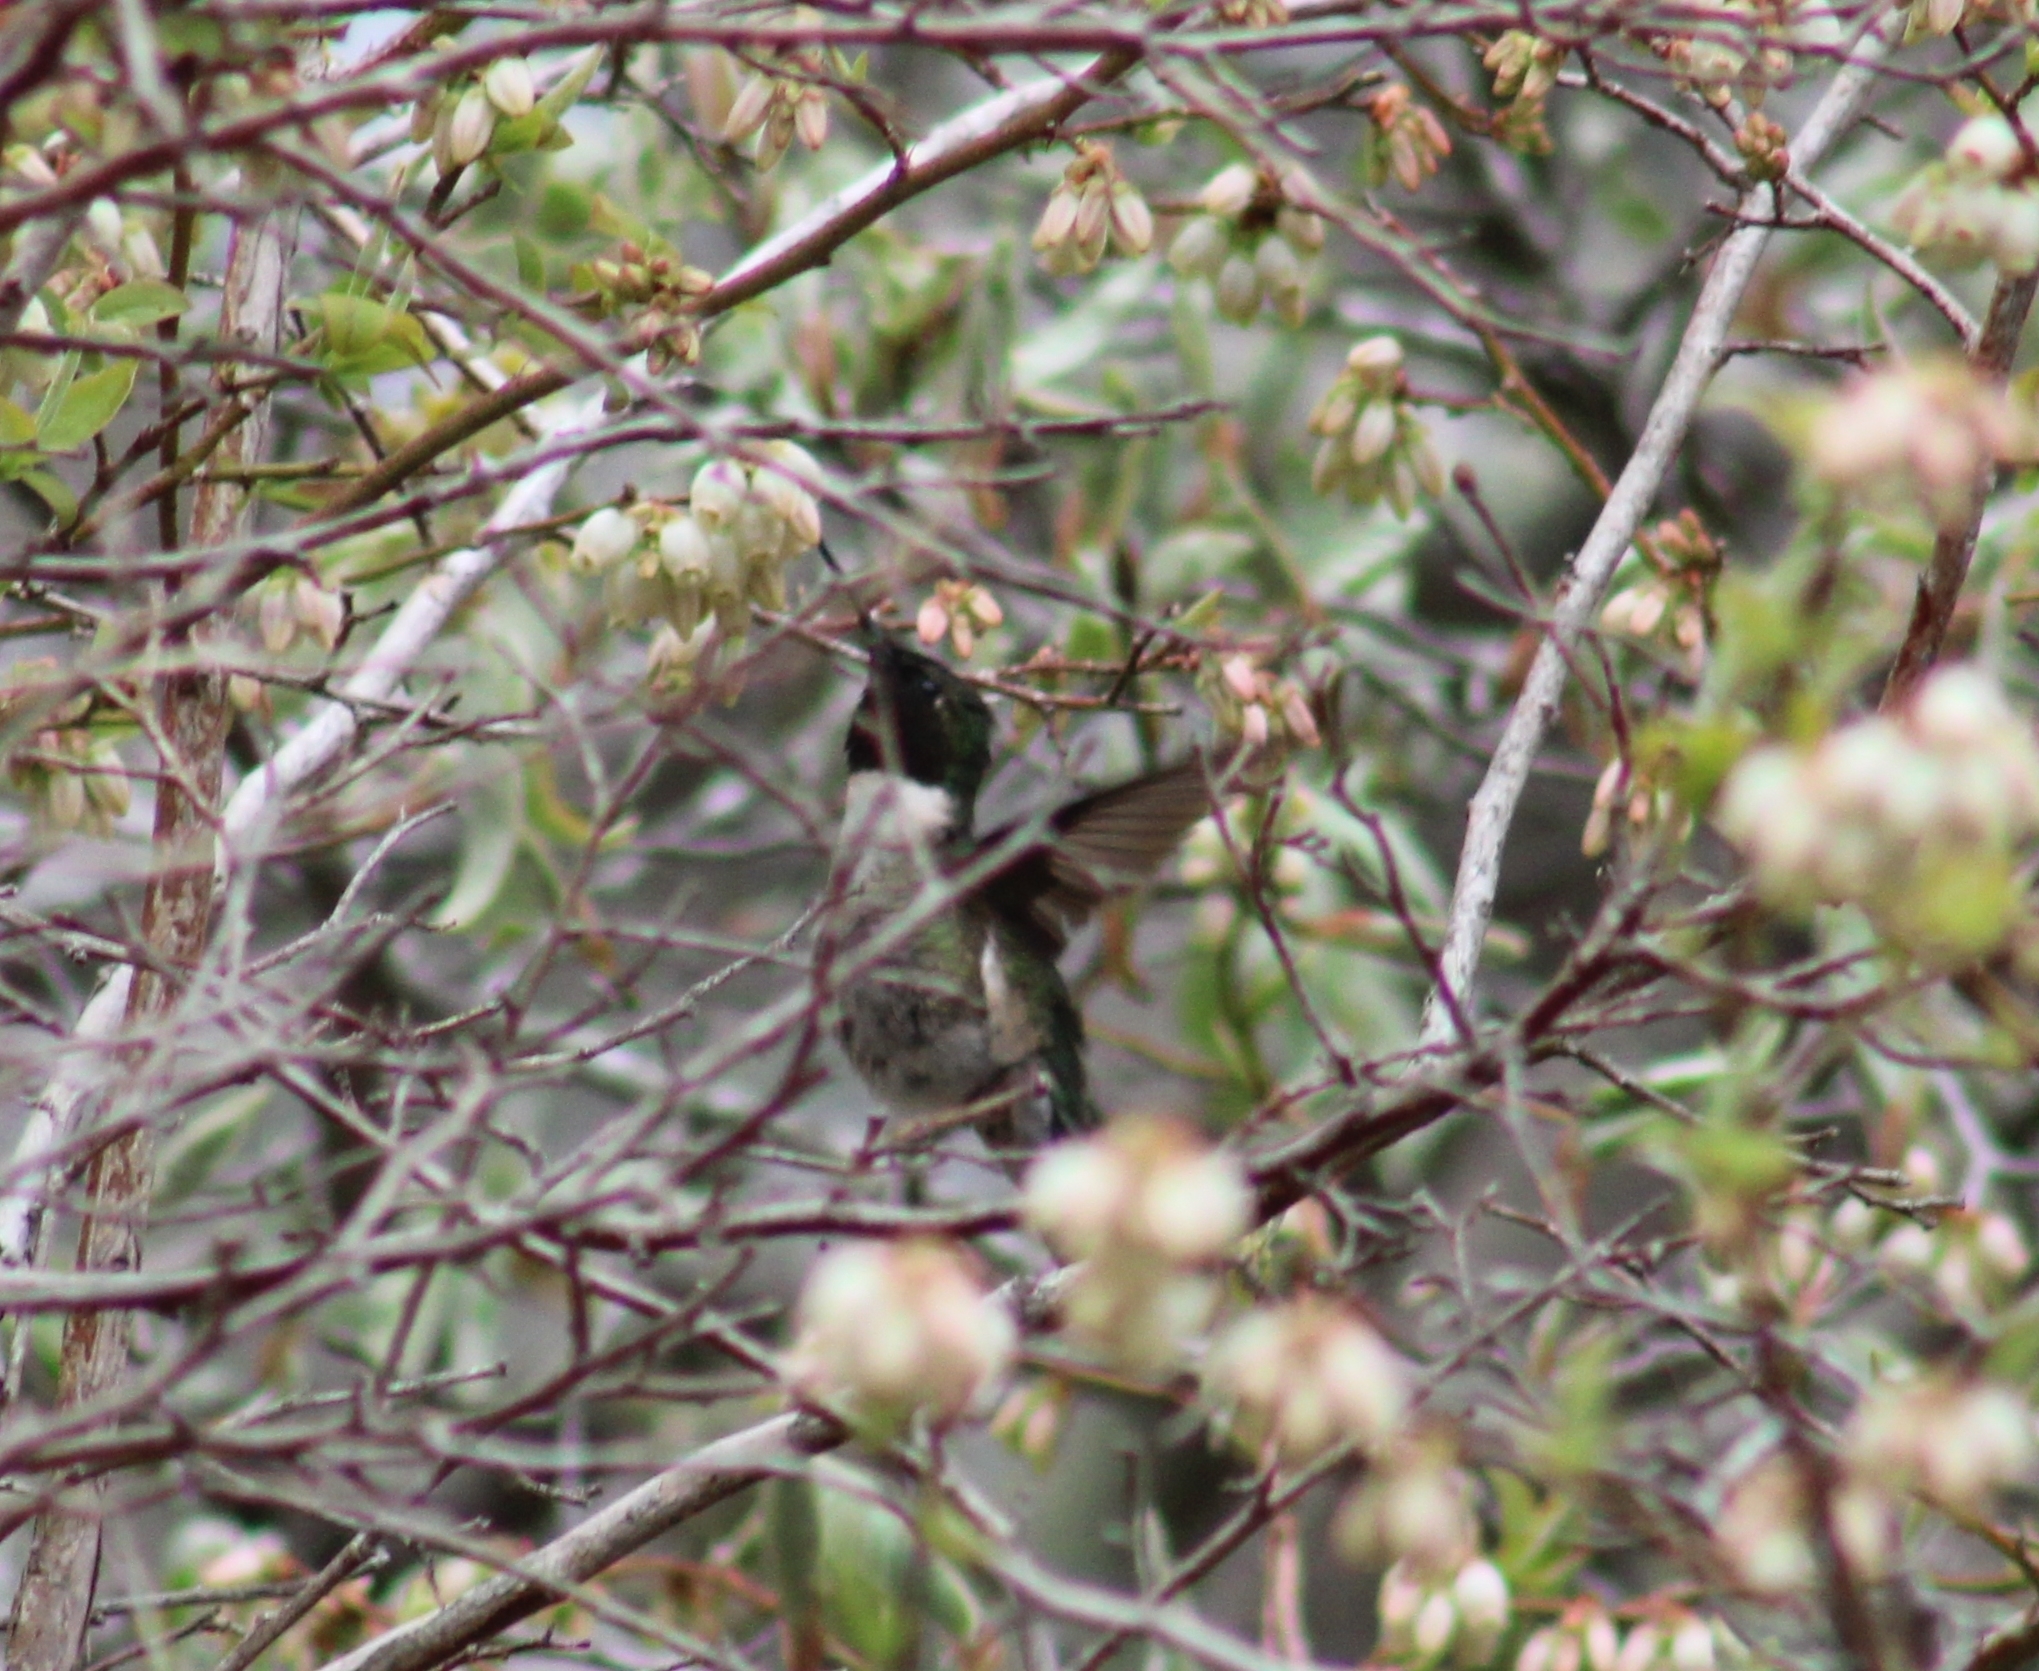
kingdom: Animalia
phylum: Chordata
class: Aves
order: Apodiformes
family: Trochilidae
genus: Archilochus
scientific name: Archilochus colubris
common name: Ruby-throated hummingbird
